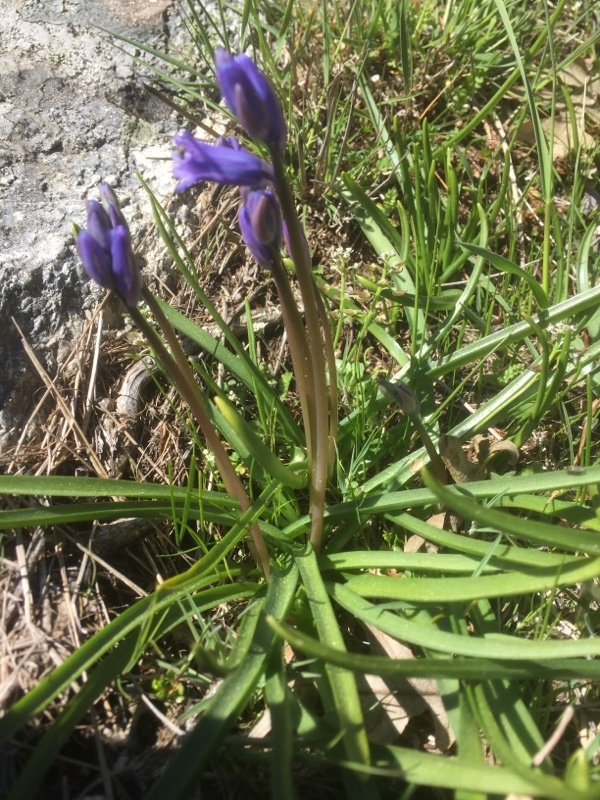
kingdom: Plantae
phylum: Tracheophyta
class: Liliopsida
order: Asparagales
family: Asparagaceae
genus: Hyacinthoides
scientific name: Hyacinthoides hispanica
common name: Spanish bluebell
